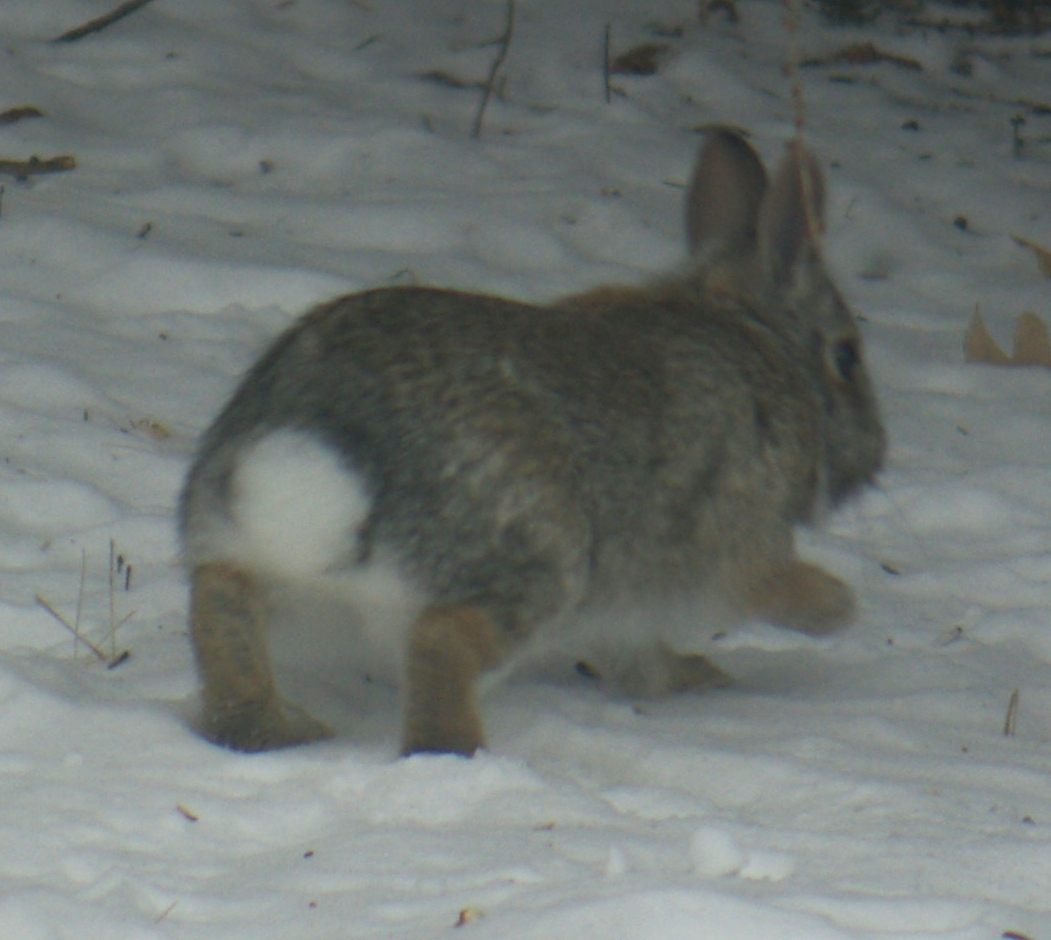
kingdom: Animalia
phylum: Chordata
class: Mammalia
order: Lagomorpha
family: Leporidae
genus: Sylvilagus
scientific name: Sylvilagus floridanus
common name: Eastern cottontail
